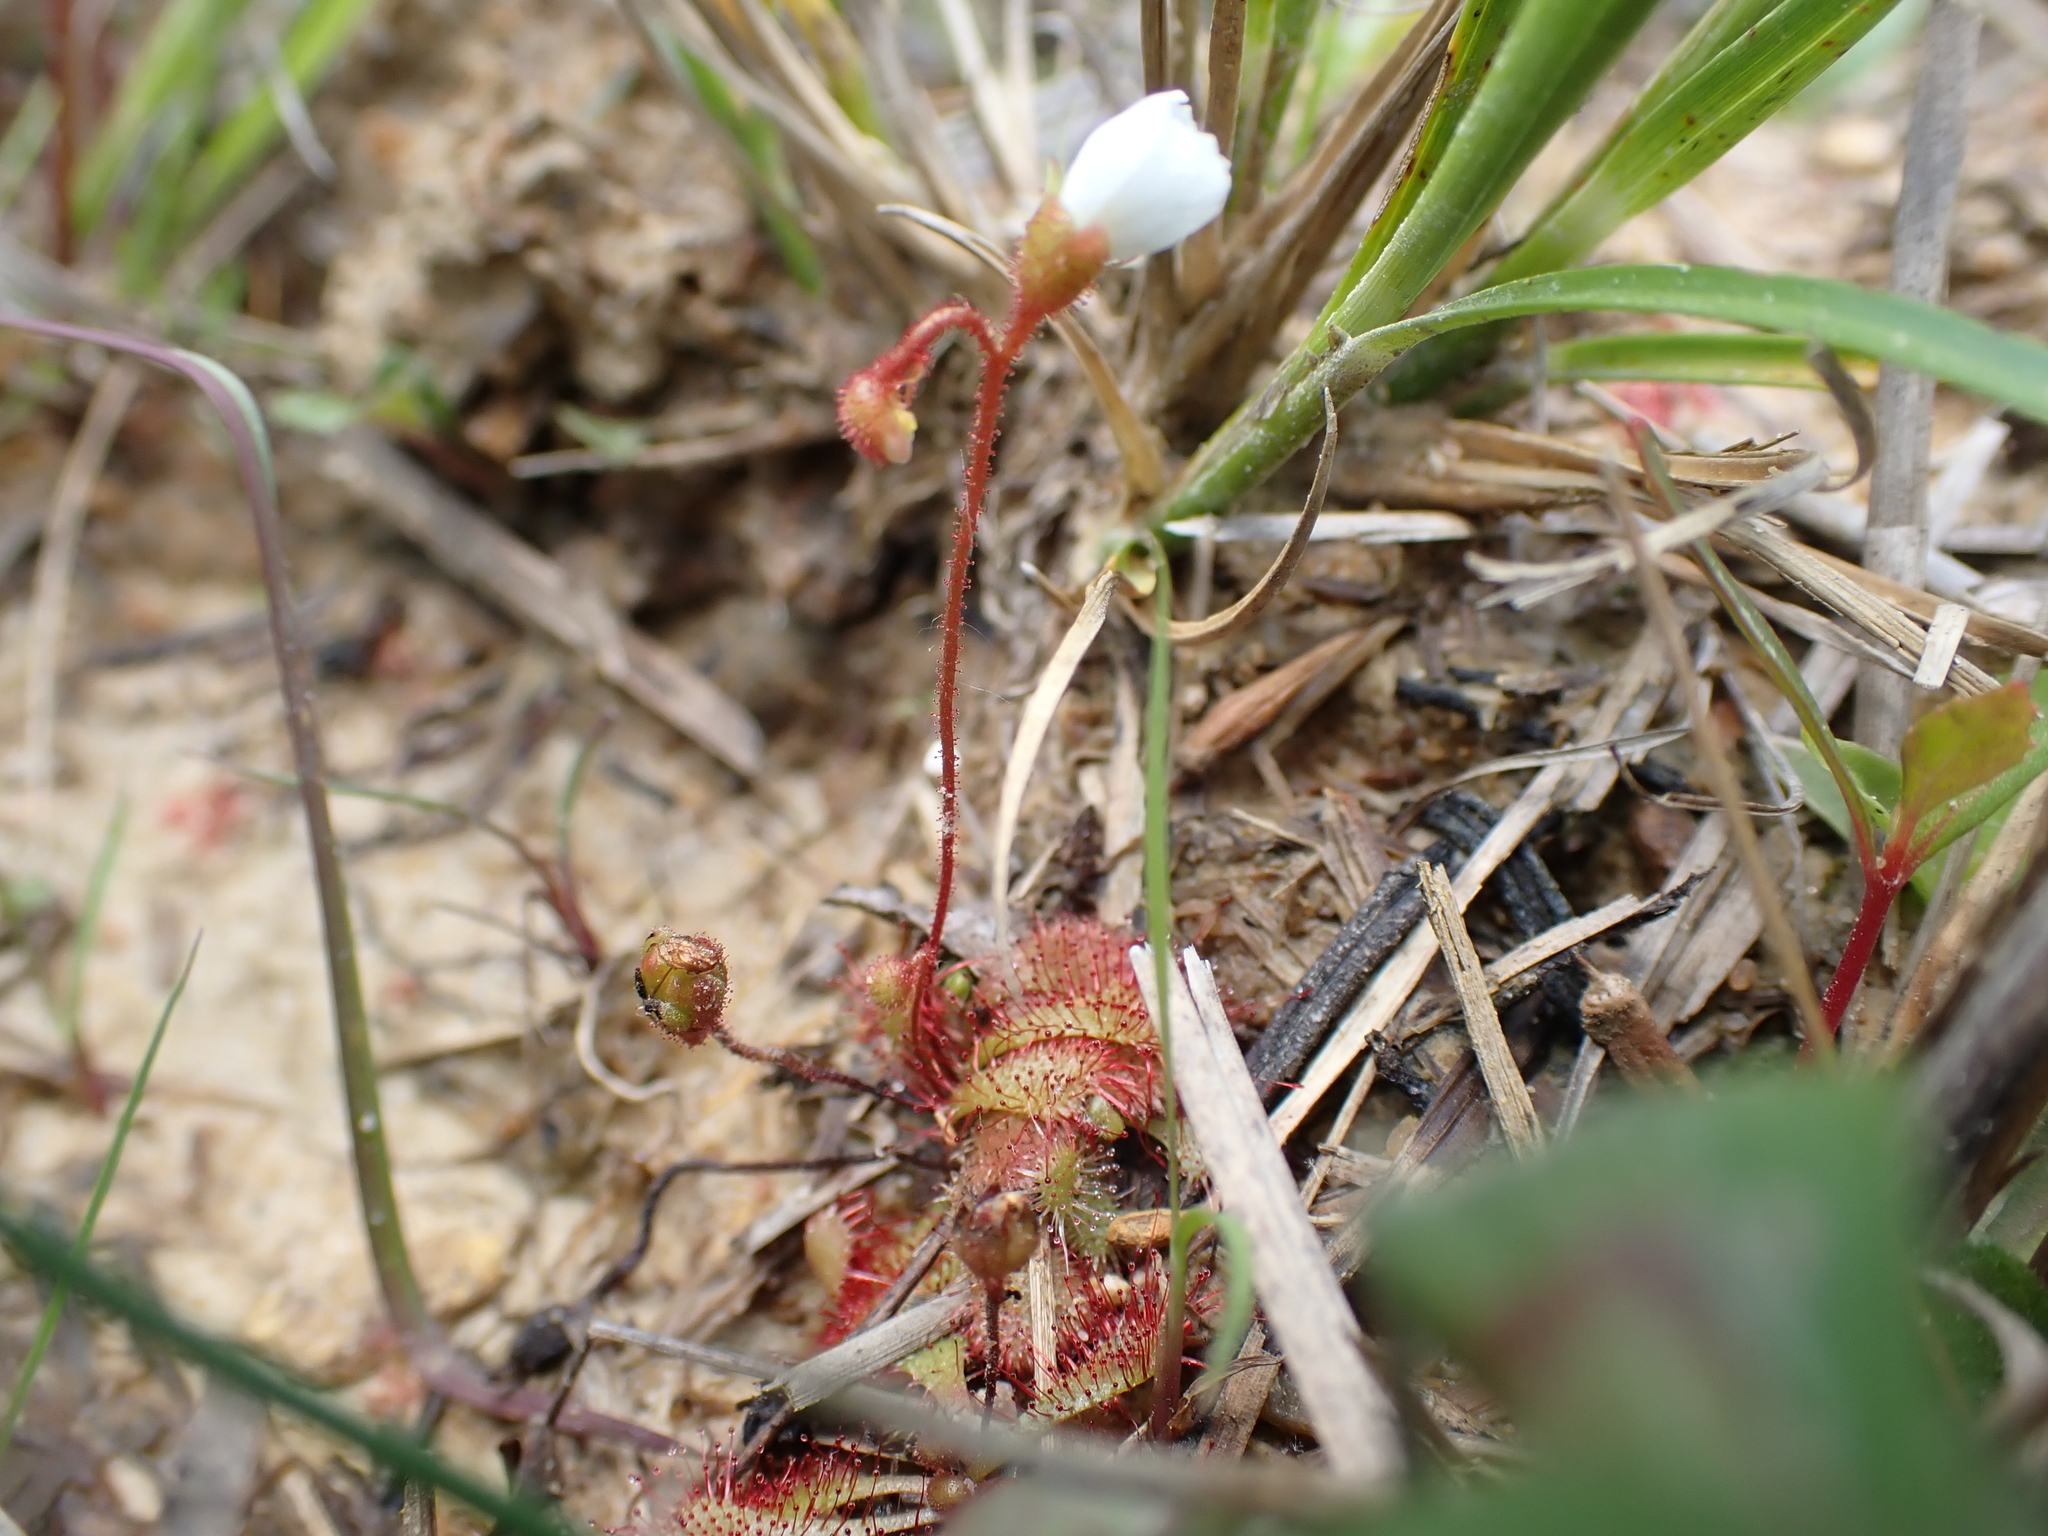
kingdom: Plantae
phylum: Tracheophyta
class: Magnoliopsida
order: Caryophyllales
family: Droseraceae
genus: Drosera
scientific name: Drosera brevifolia
